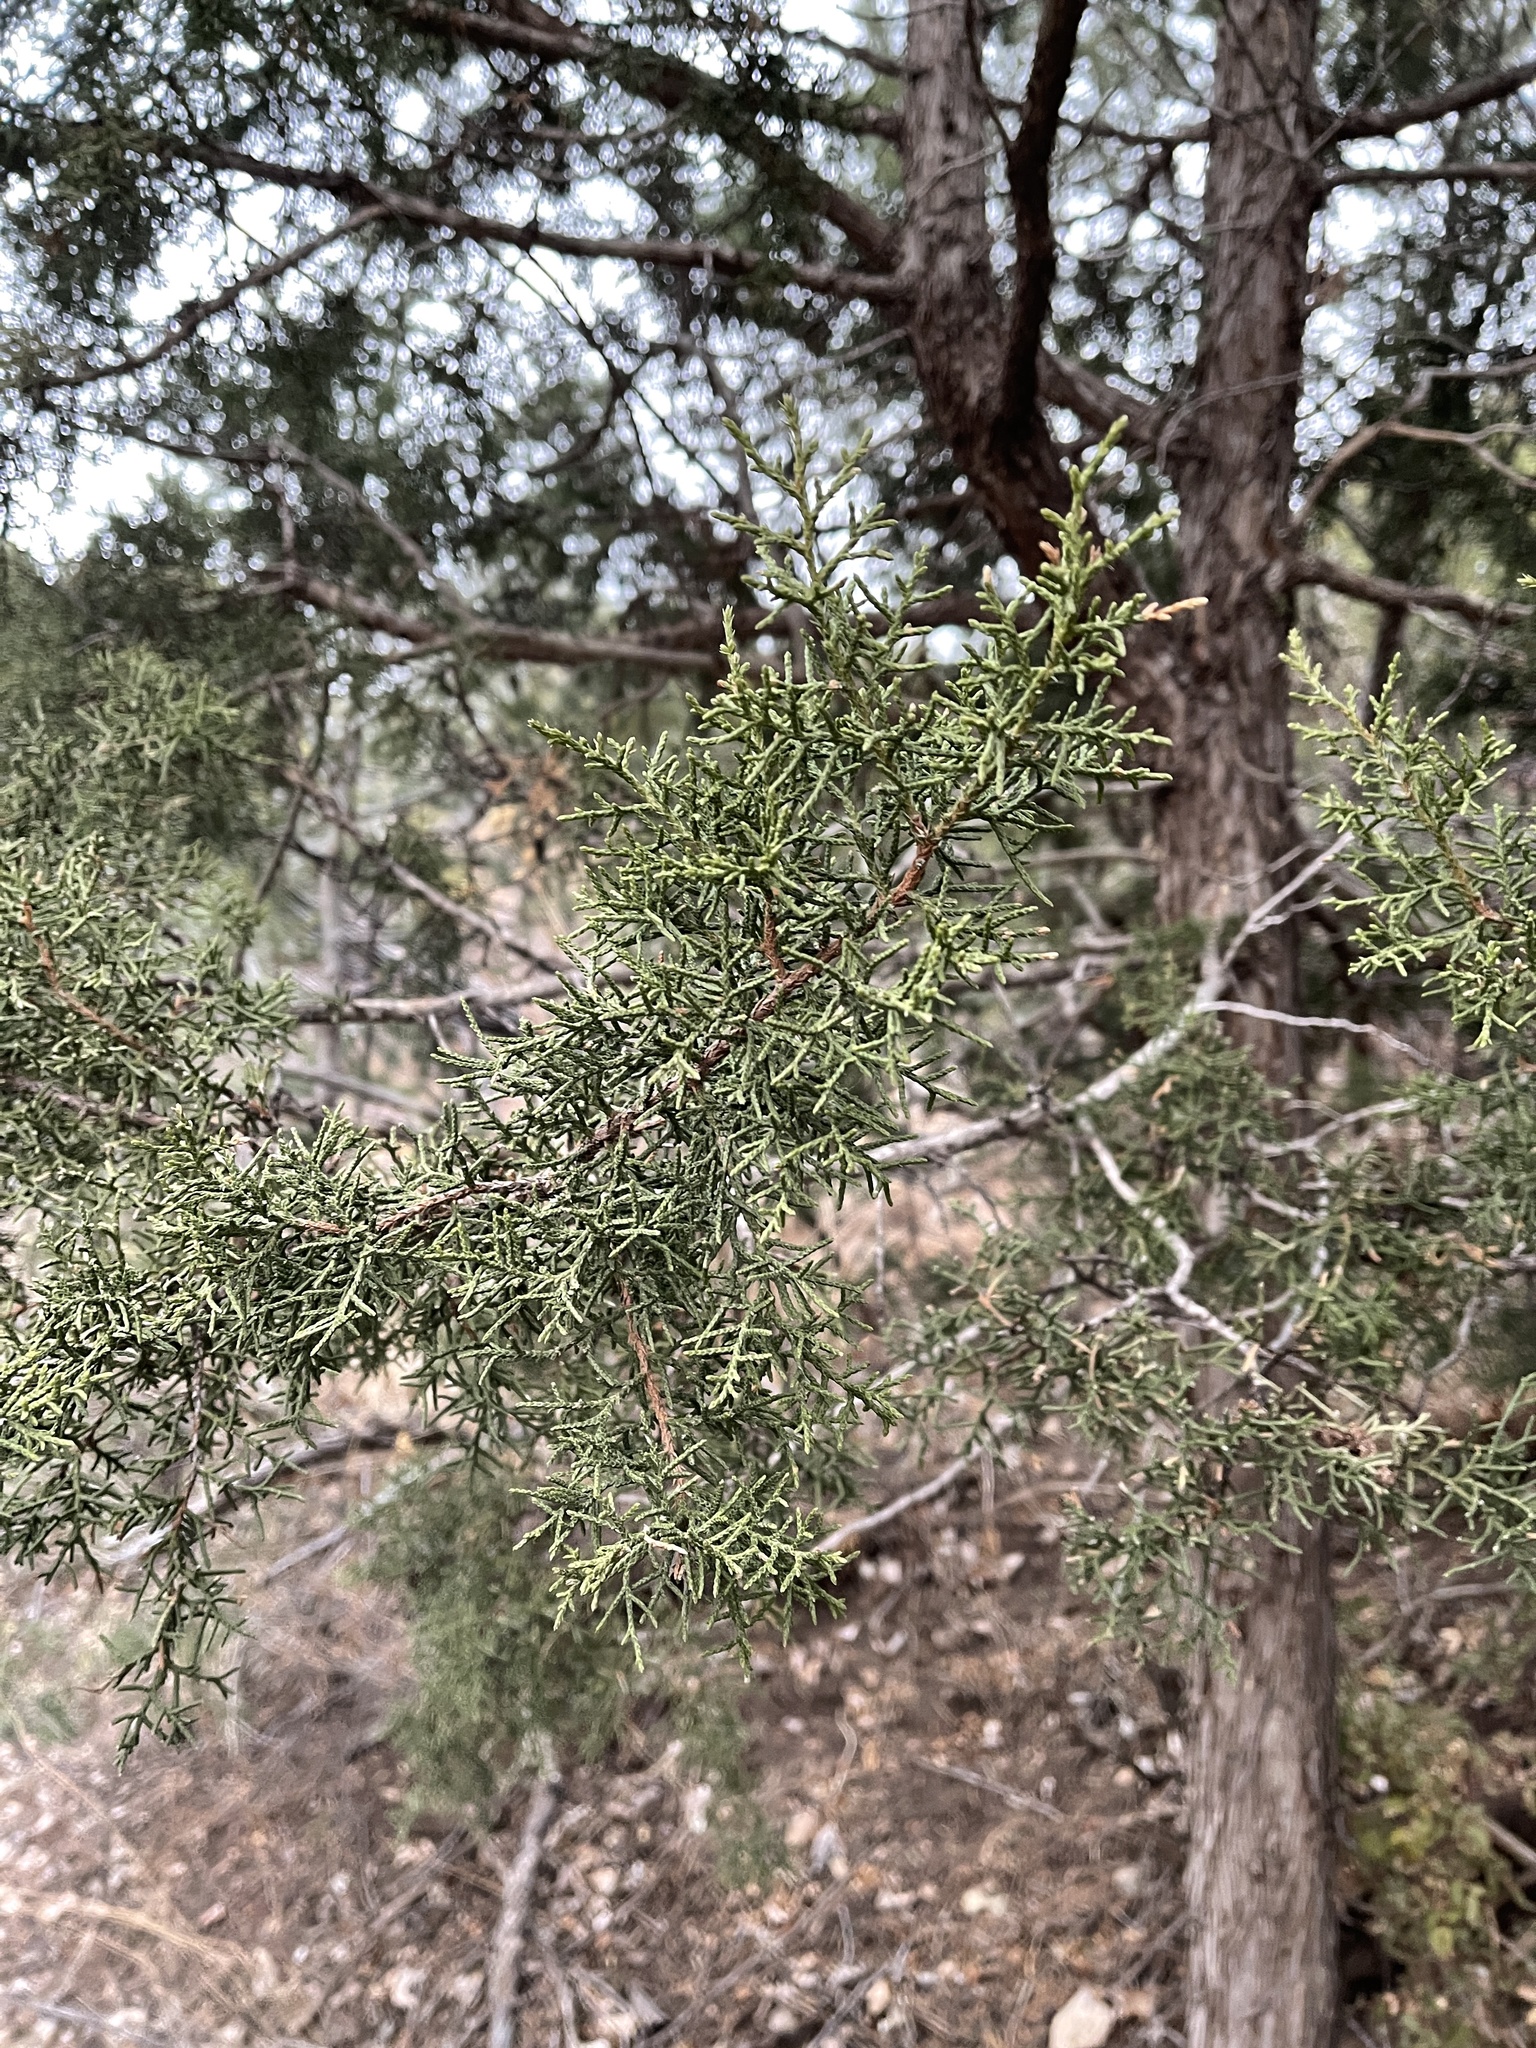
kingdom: Plantae
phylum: Tracheophyta
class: Pinopsida
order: Pinales
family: Cupressaceae
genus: Juniperus
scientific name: Juniperus monosperma
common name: One-seed juniper
